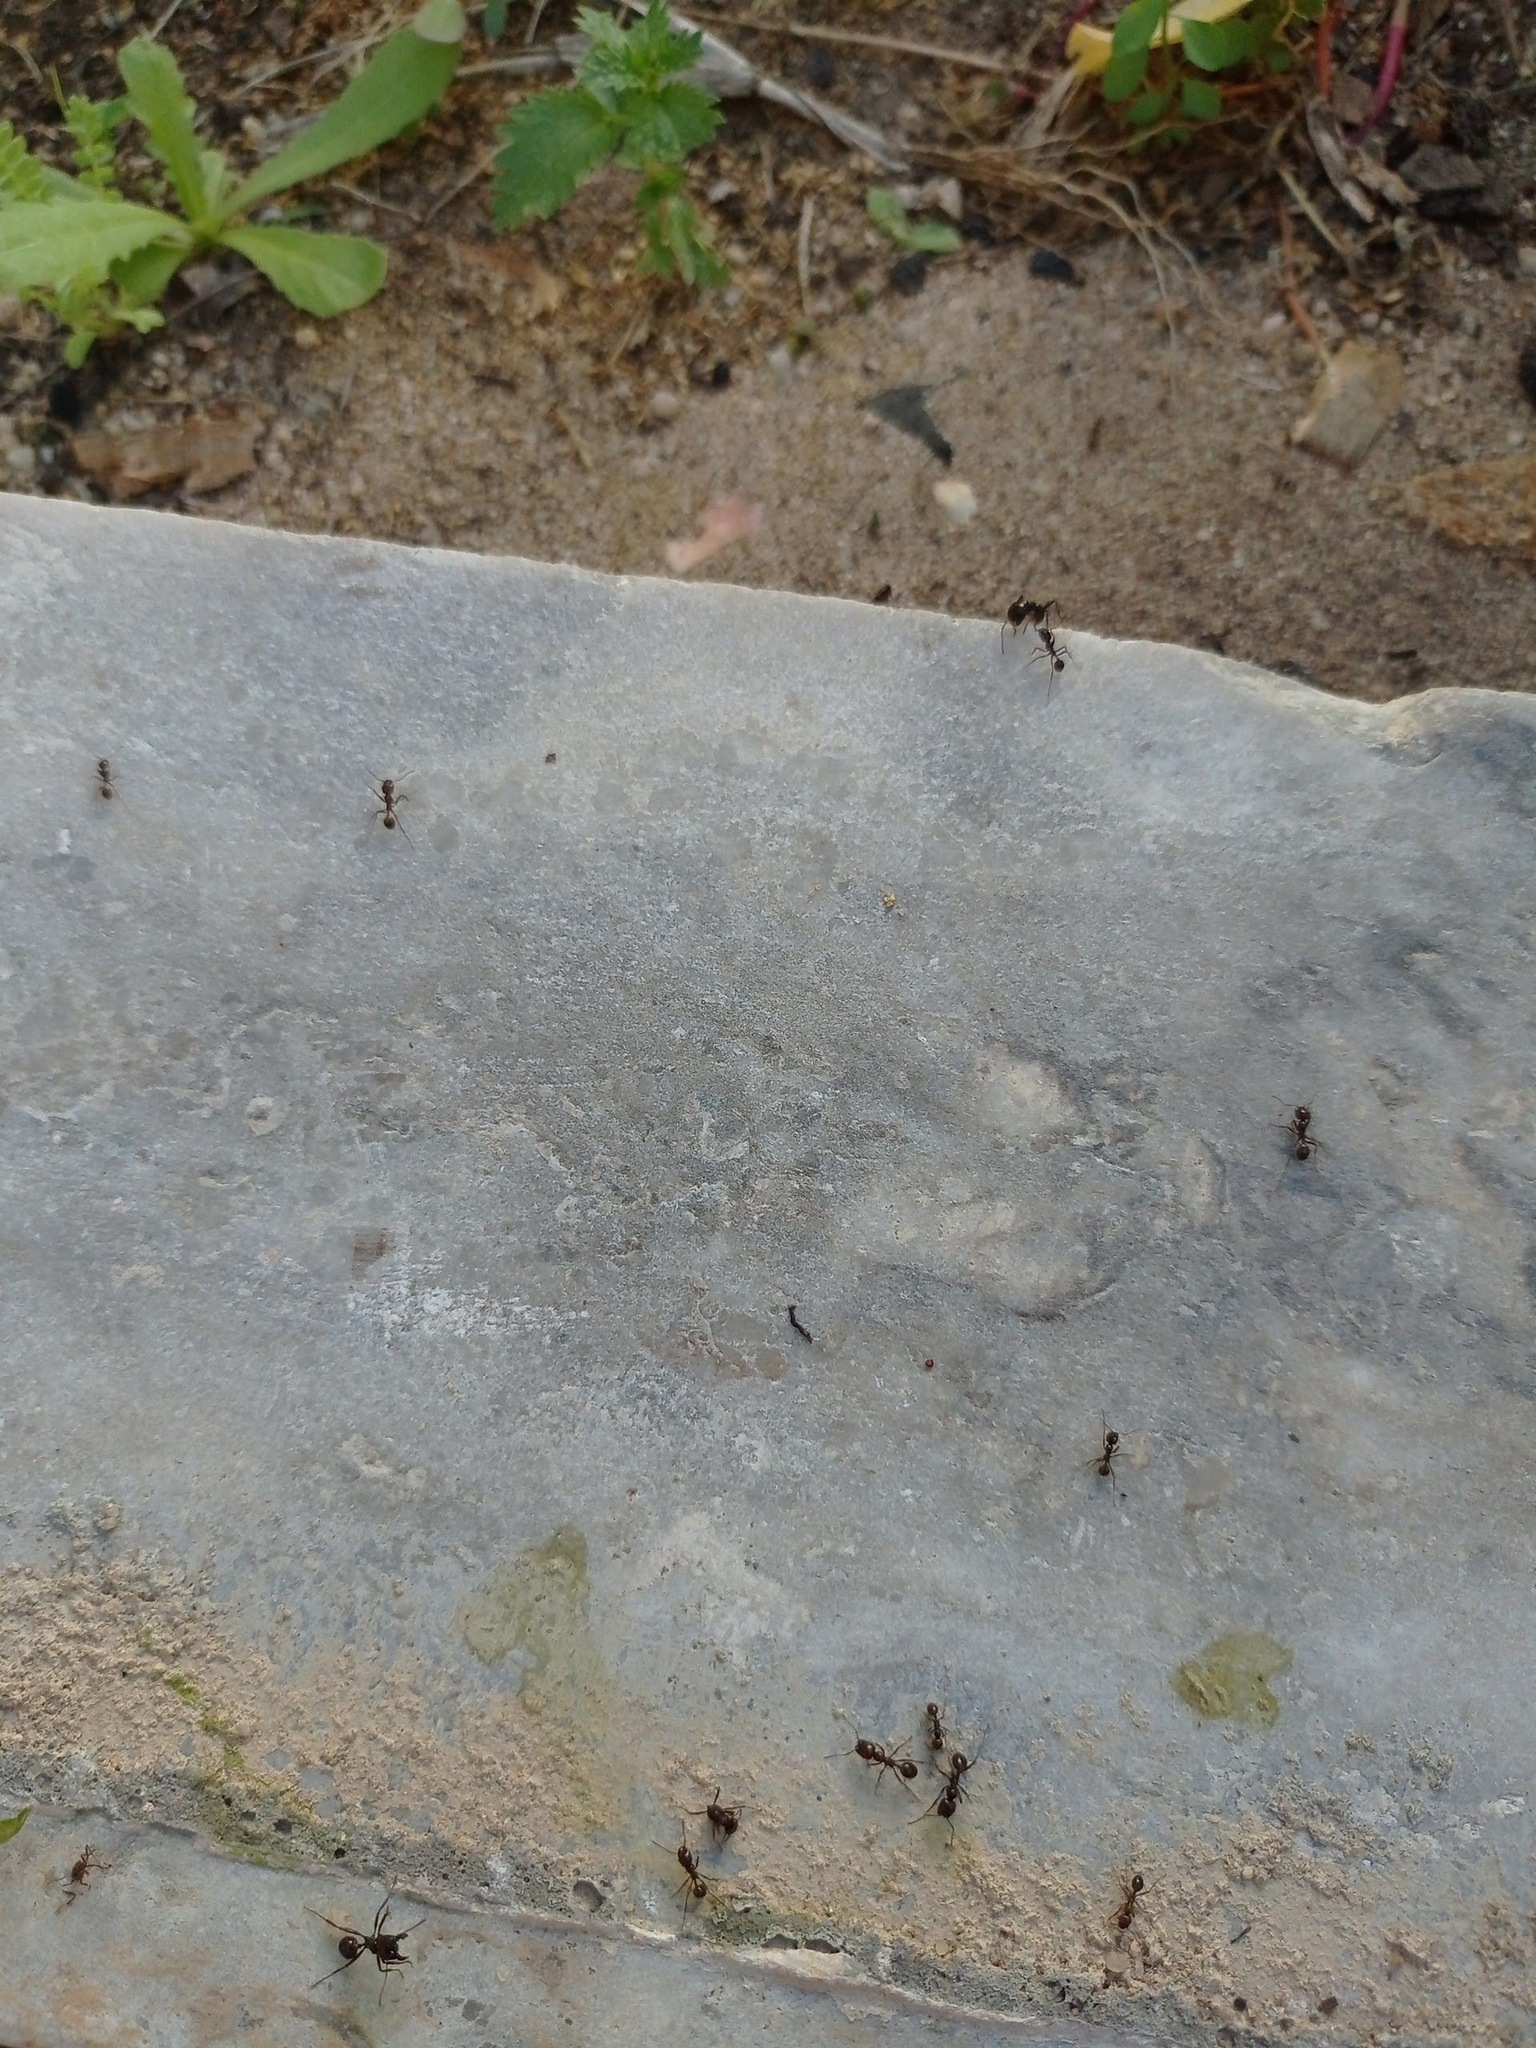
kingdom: Animalia
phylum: Arthropoda
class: Insecta
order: Hymenoptera
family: Formicidae
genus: Messor
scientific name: Messor ibericus
